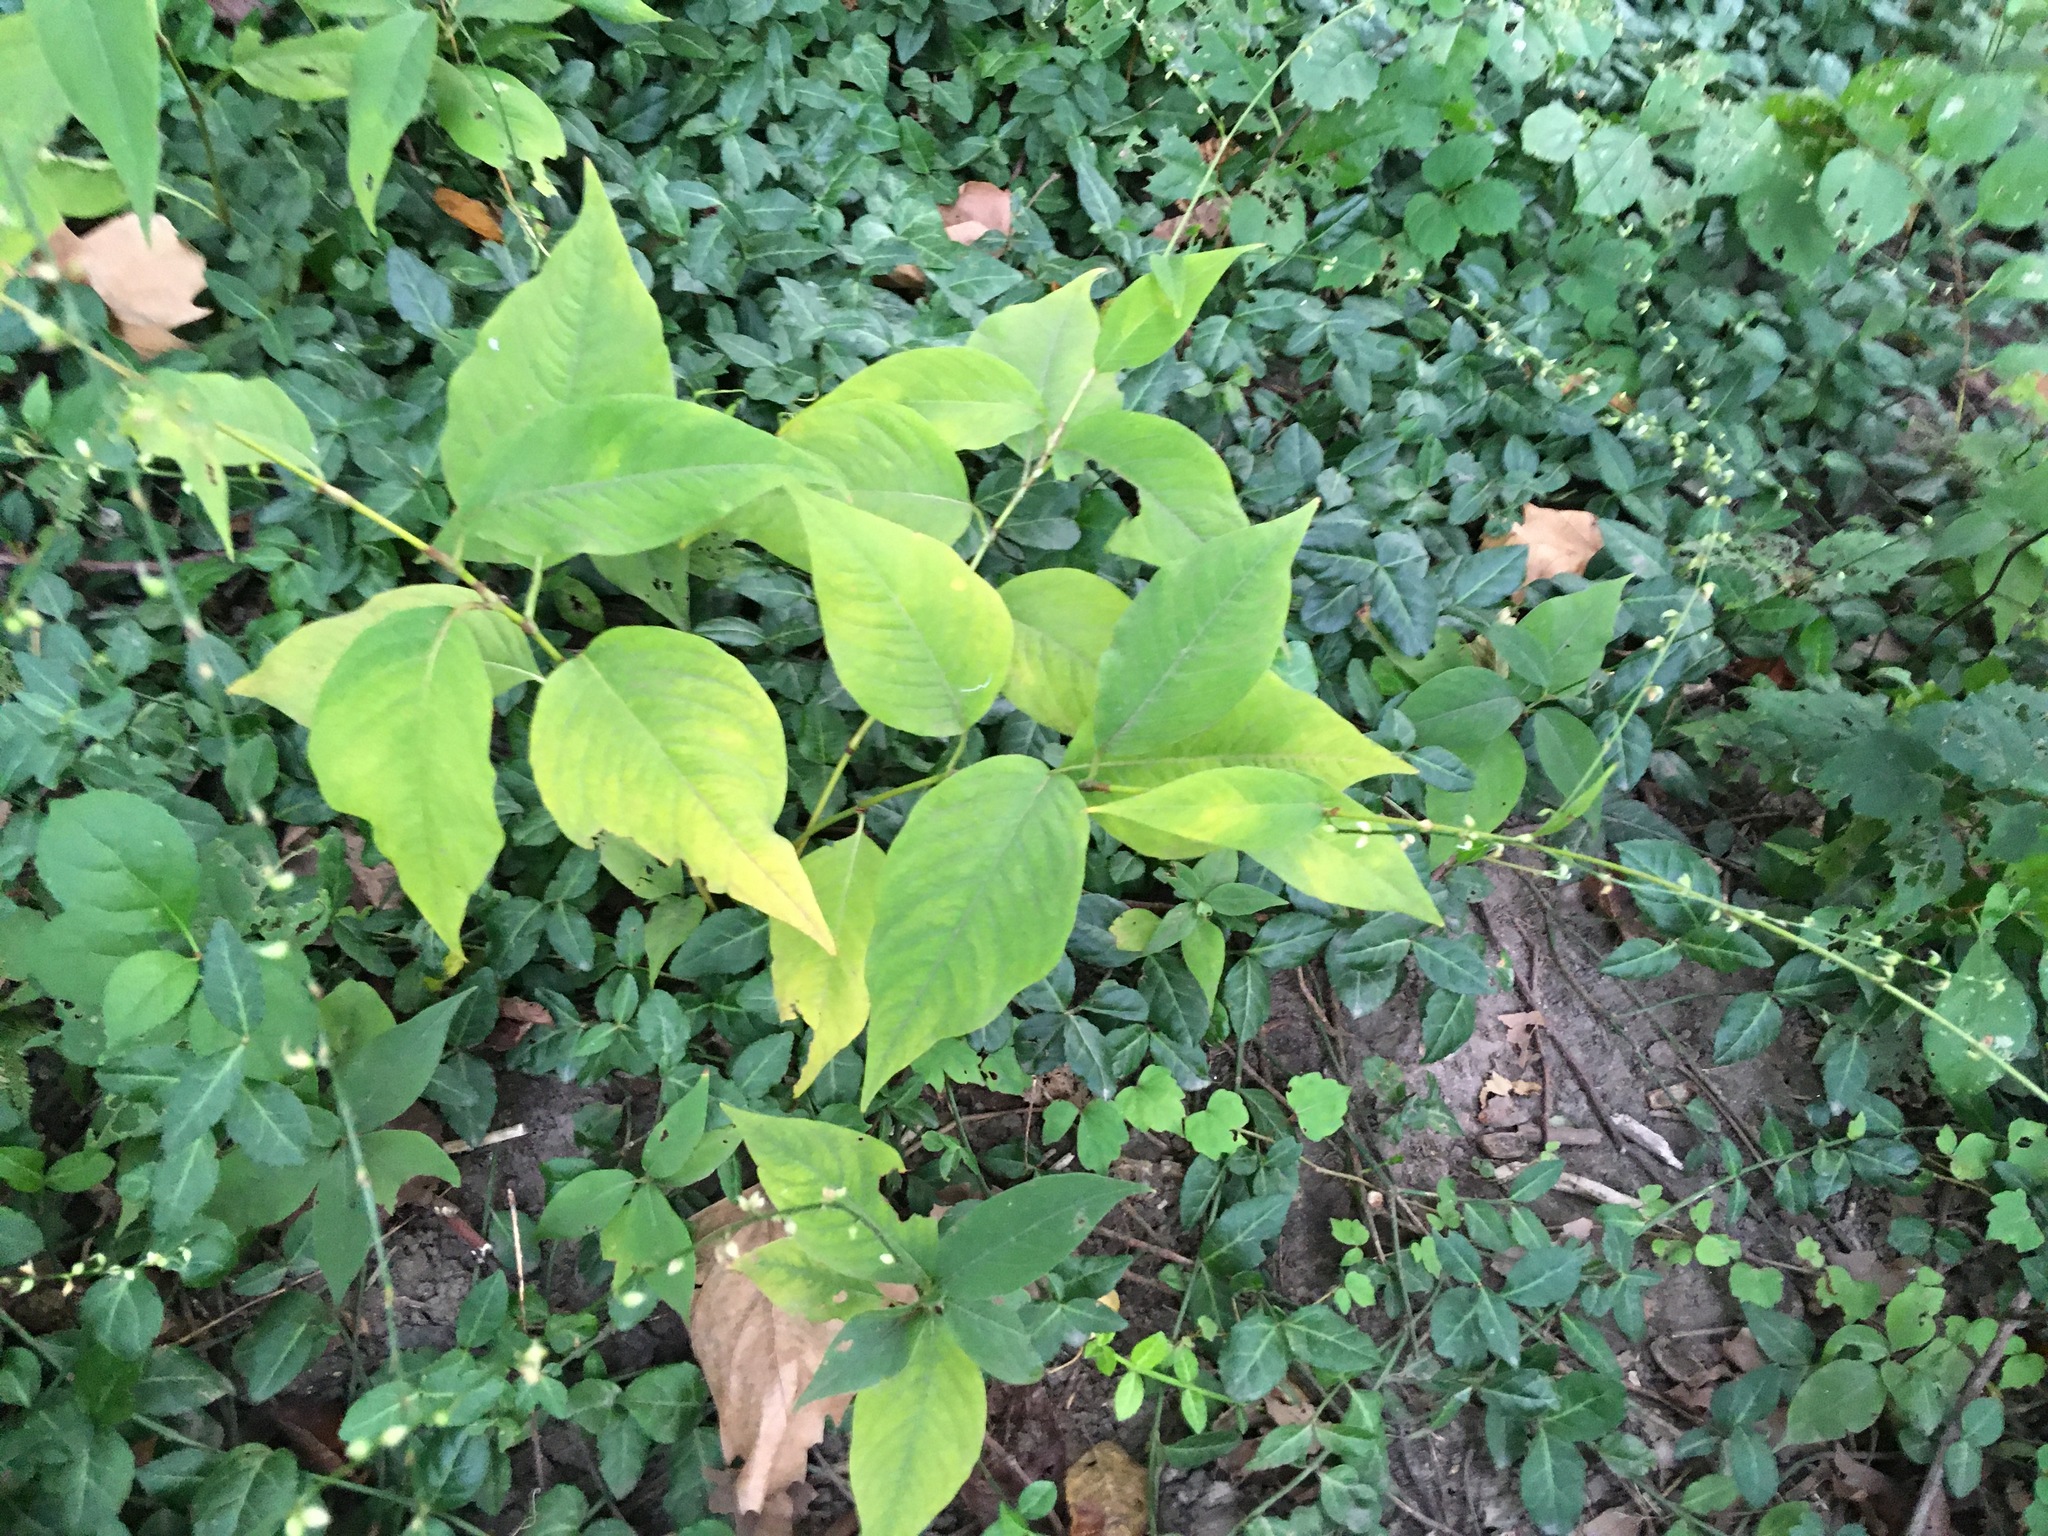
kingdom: Plantae
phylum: Tracheophyta
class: Magnoliopsida
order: Caryophyllales
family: Polygonaceae
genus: Persicaria
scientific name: Persicaria virginiana
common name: Jumpseed
